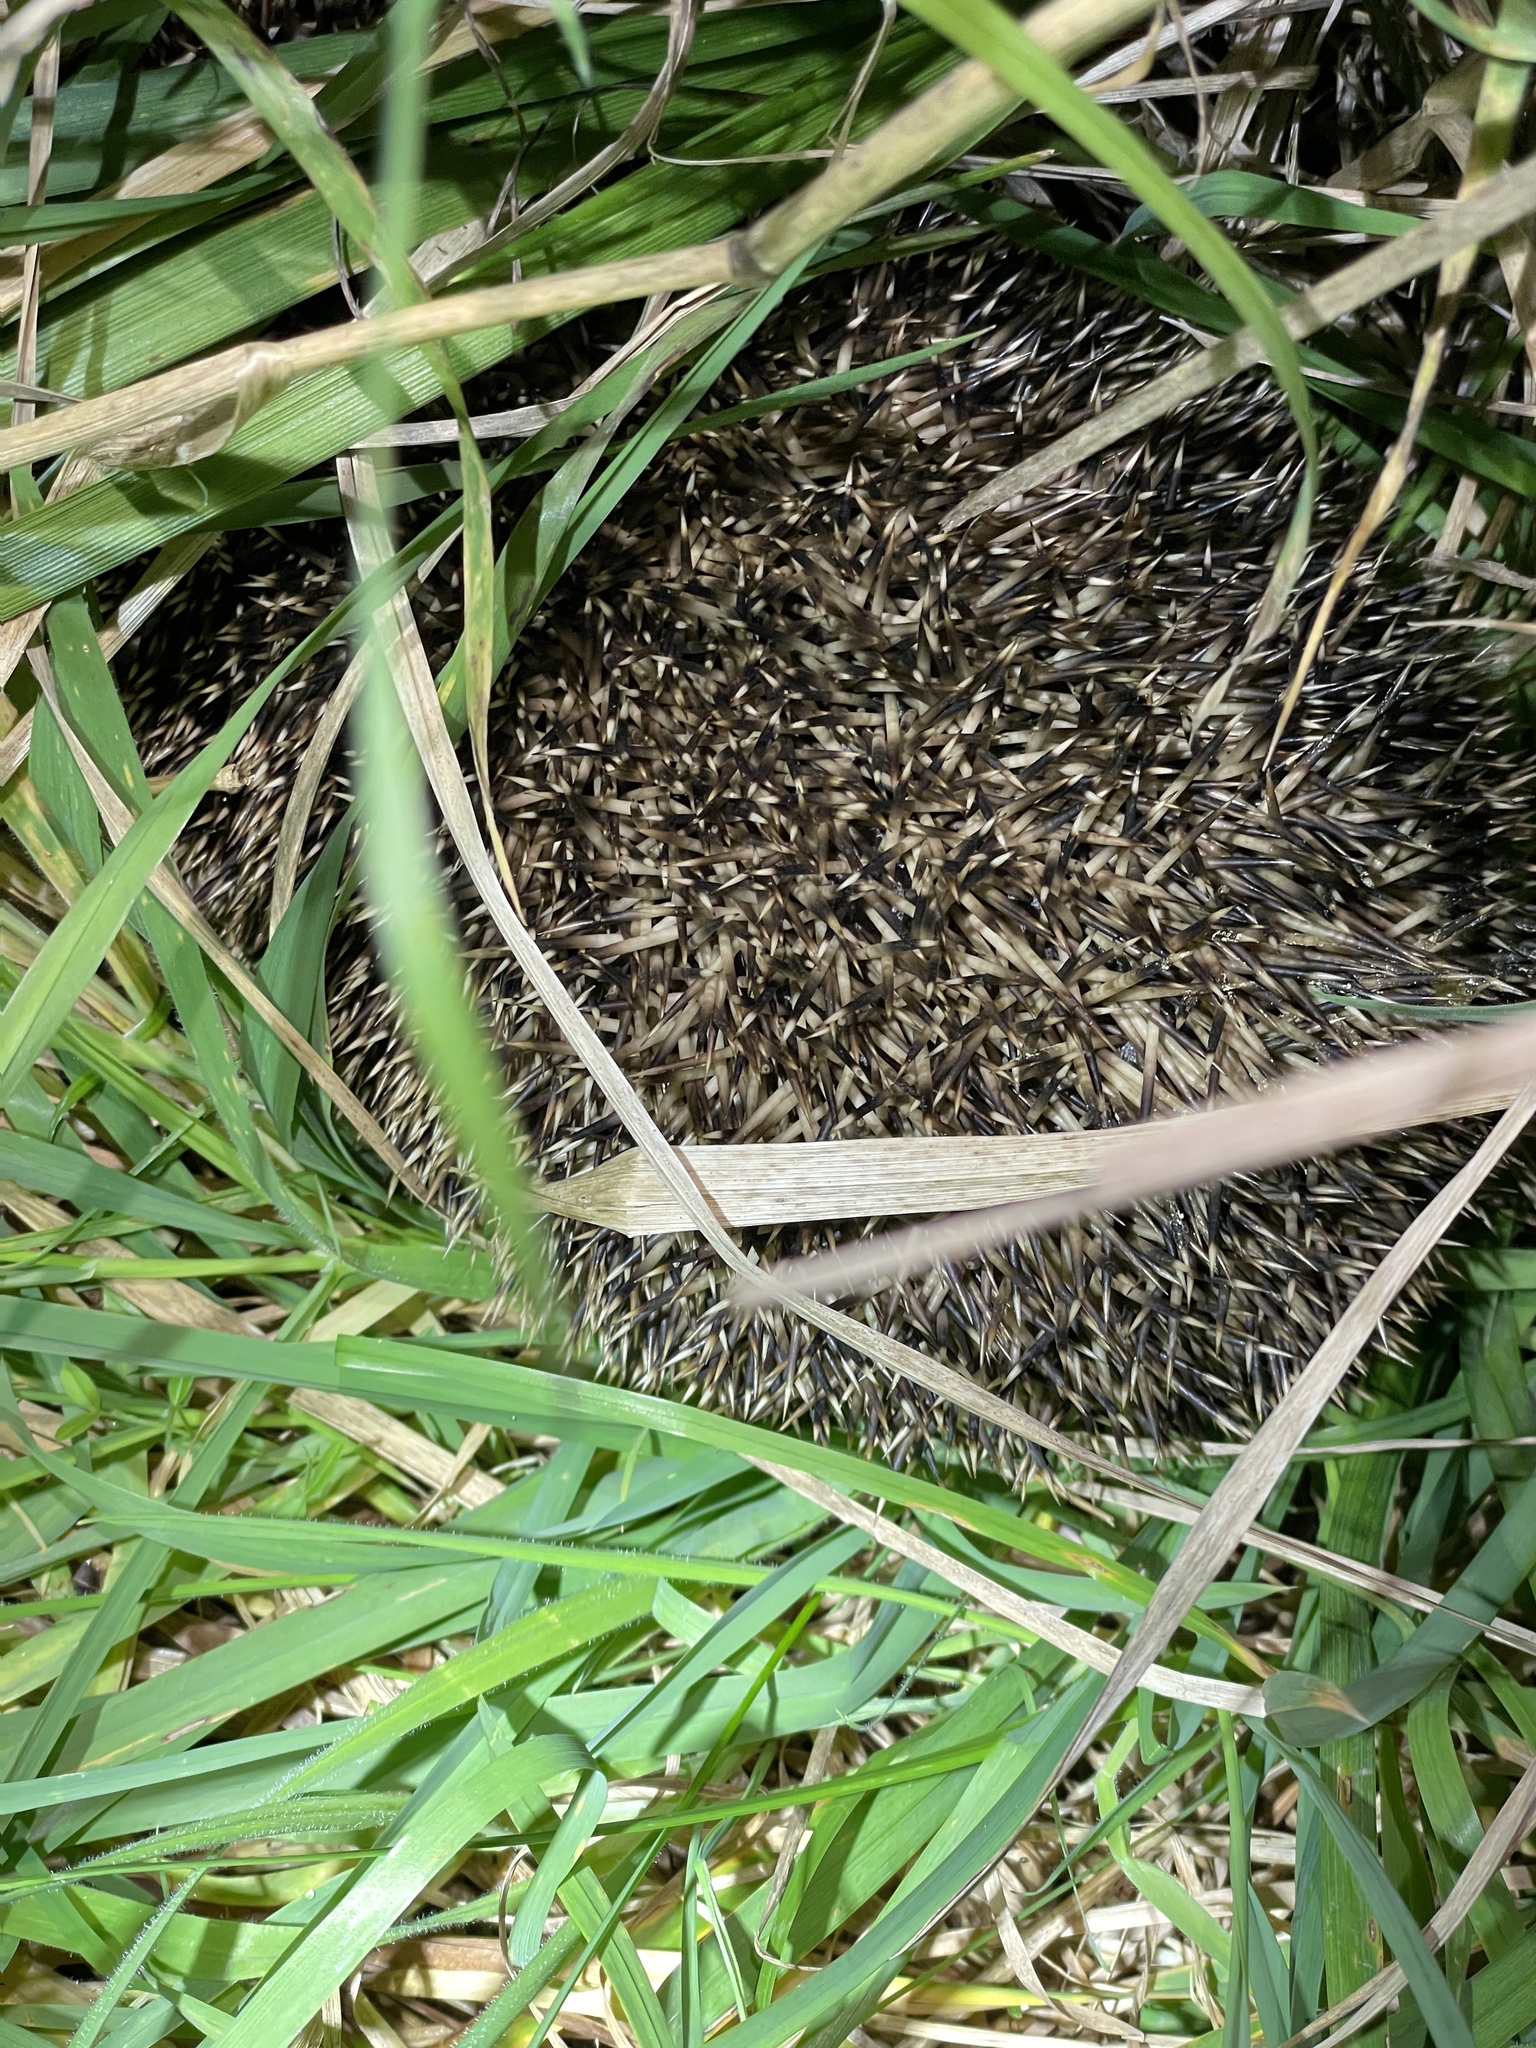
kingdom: Animalia
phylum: Chordata
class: Mammalia
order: Erinaceomorpha
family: Erinaceidae
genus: Erinaceus
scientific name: Erinaceus europaeus
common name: West european hedgehog
